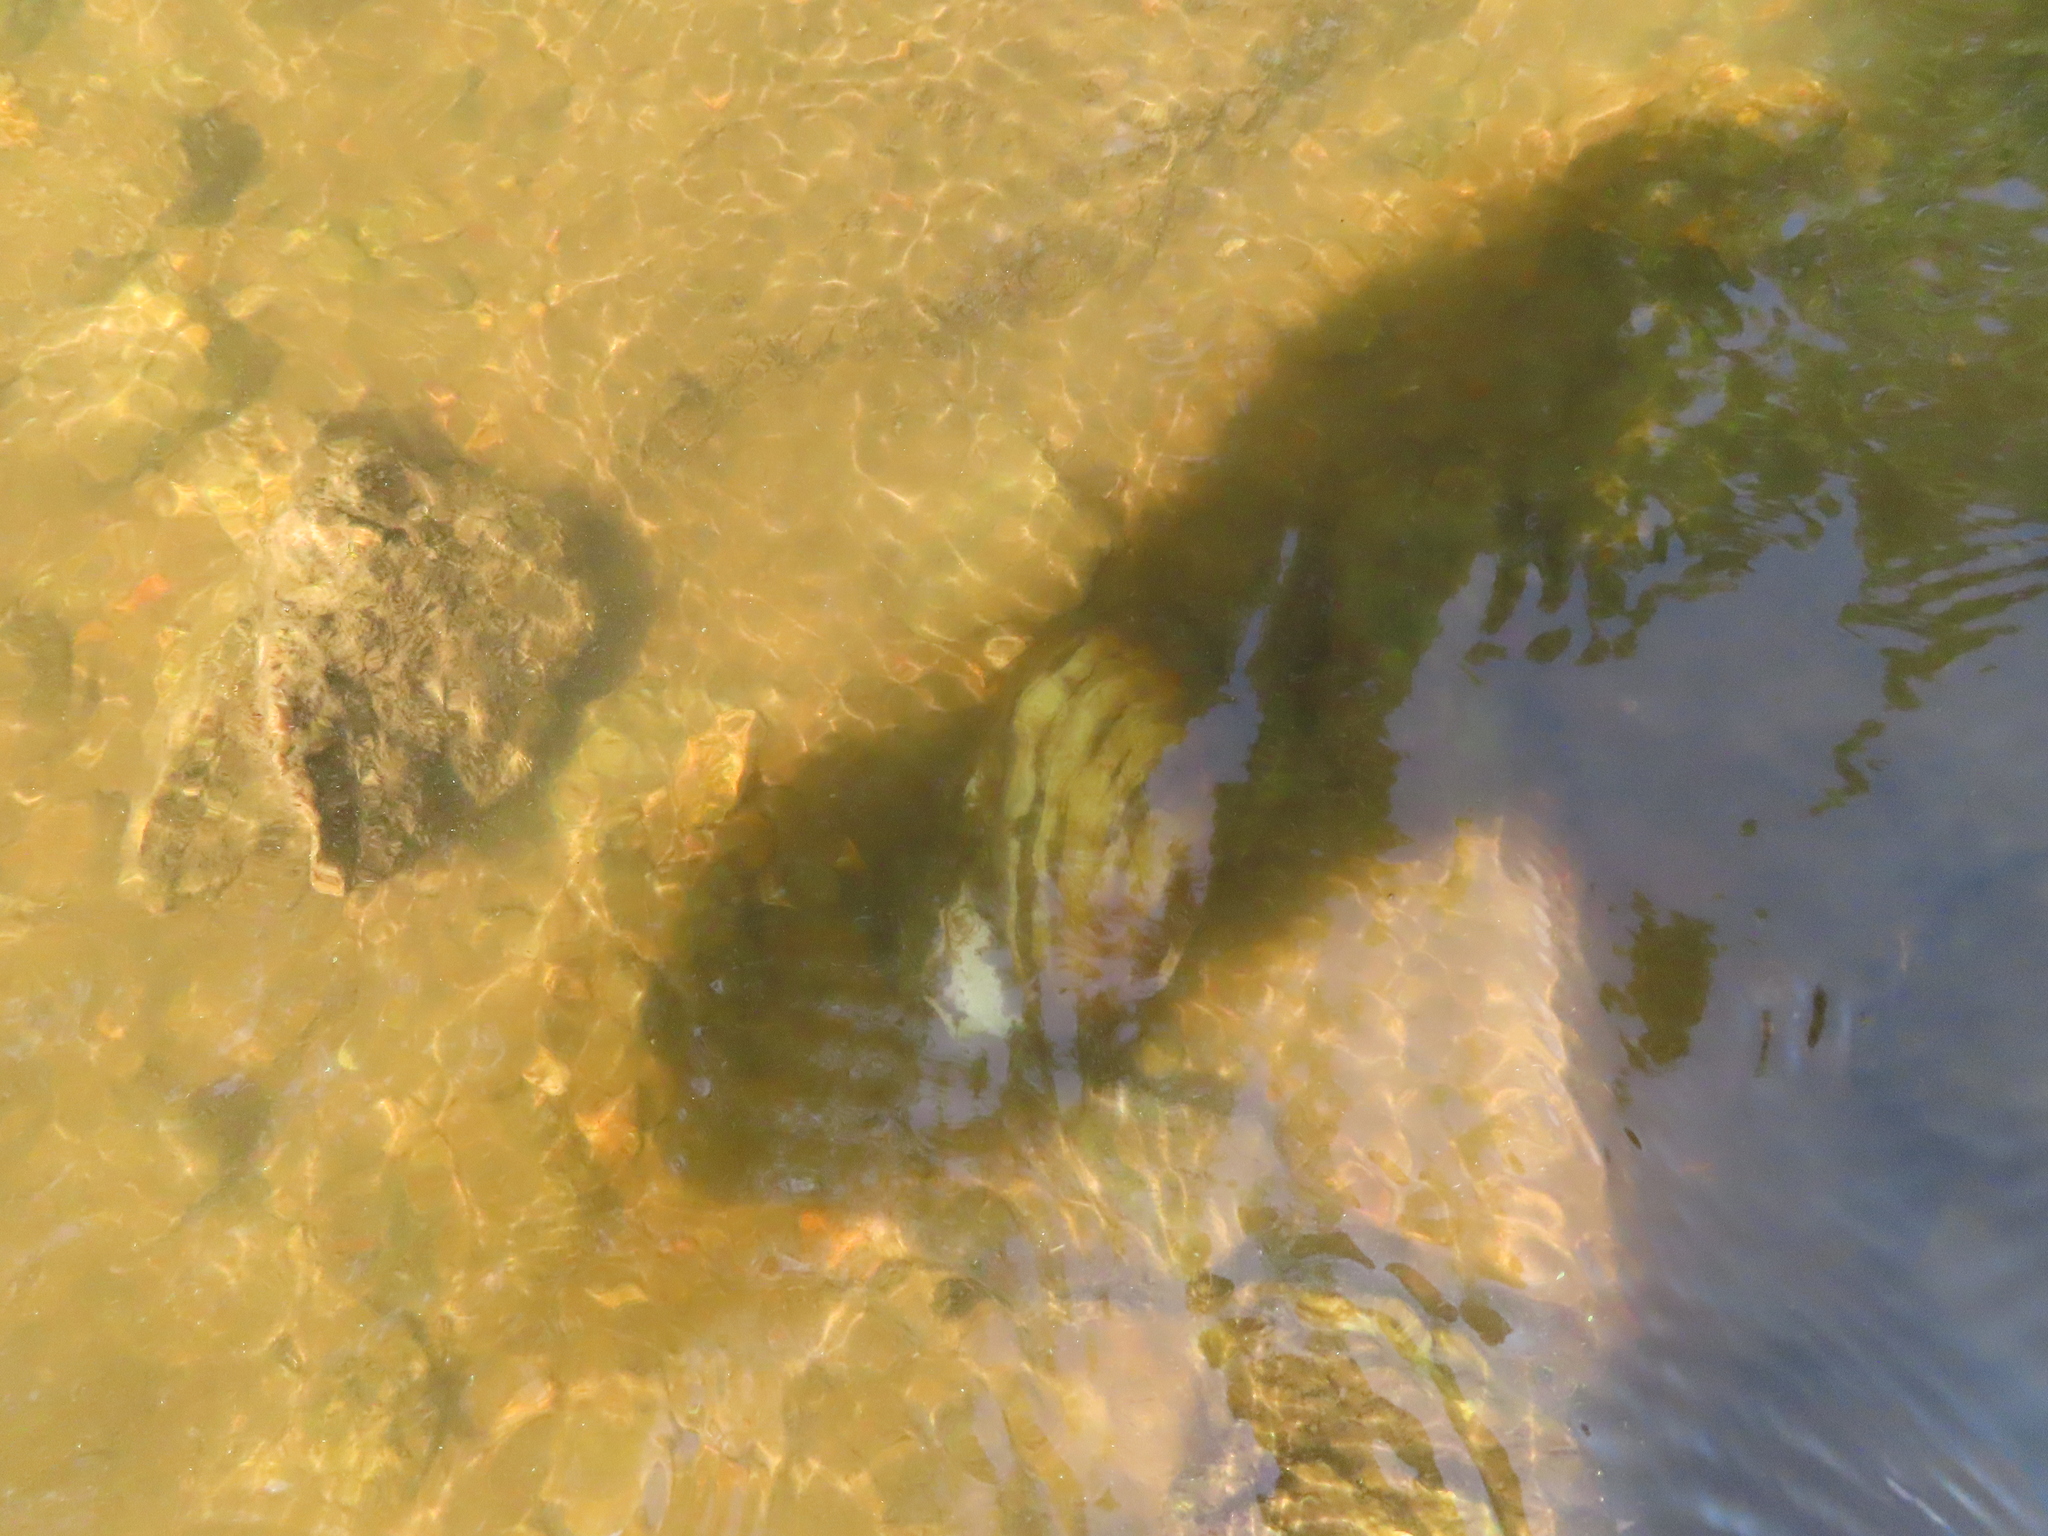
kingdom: Animalia
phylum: Mollusca
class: Bivalvia
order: Unionida
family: Unionidae
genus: Potamilus
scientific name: Potamilus fragilis
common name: Fragile papershell
